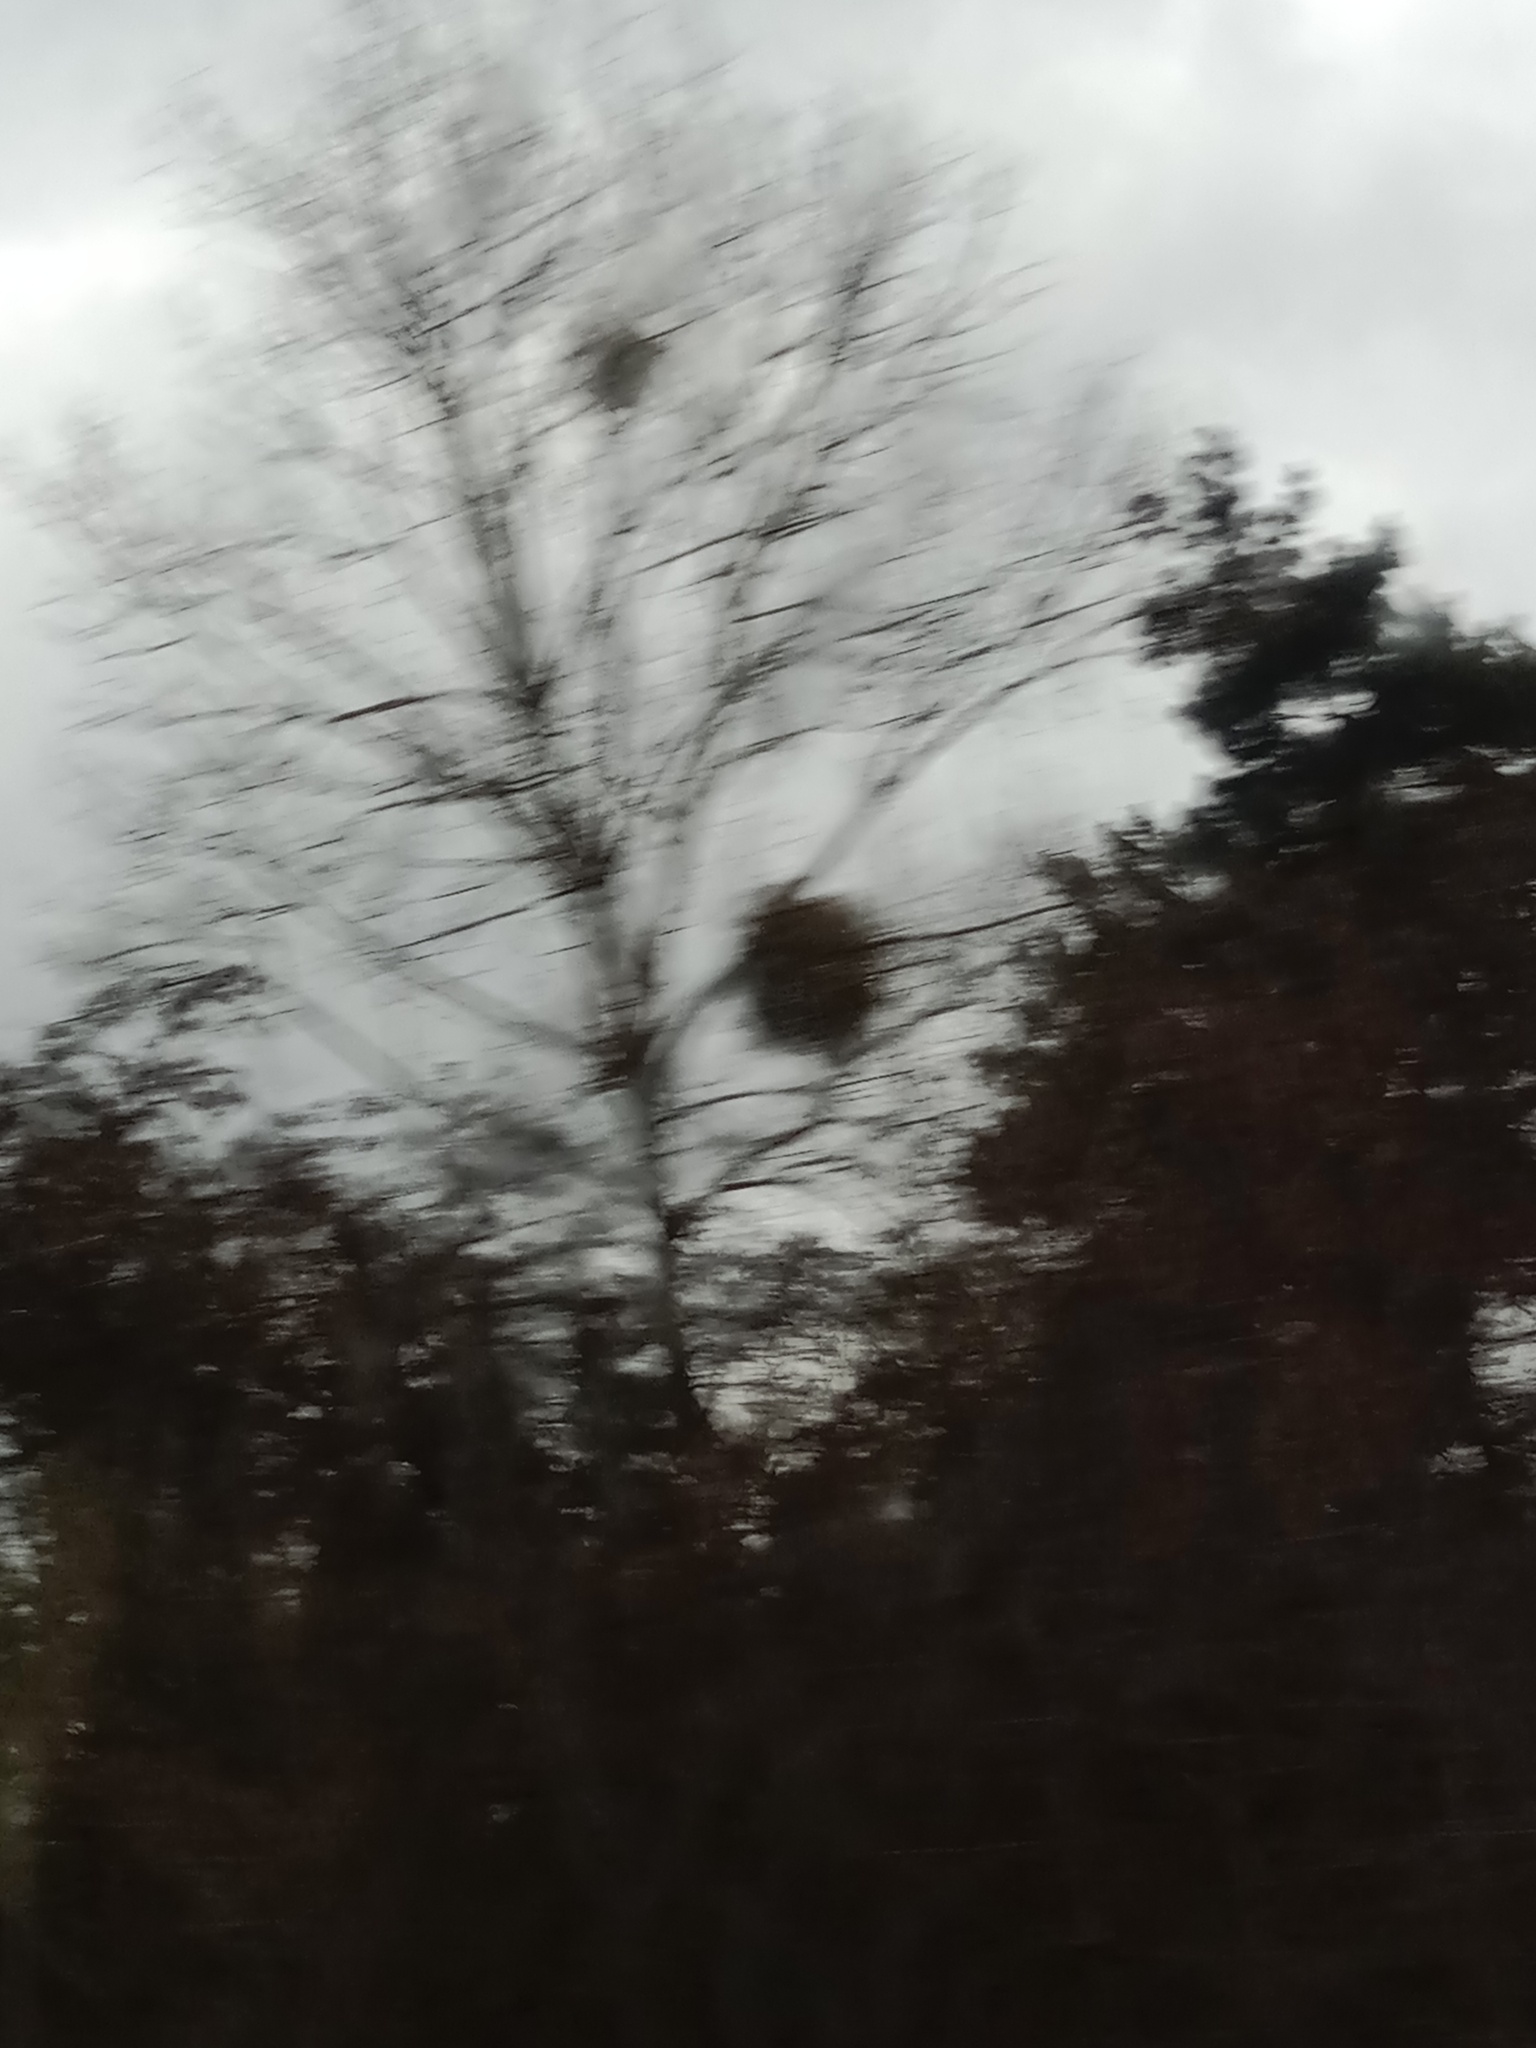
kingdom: Plantae
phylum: Tracheophyta
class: Magnoliopsida
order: Santalales
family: Viscaceae
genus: Viscum
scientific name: Viscum album
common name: Mistletoe
